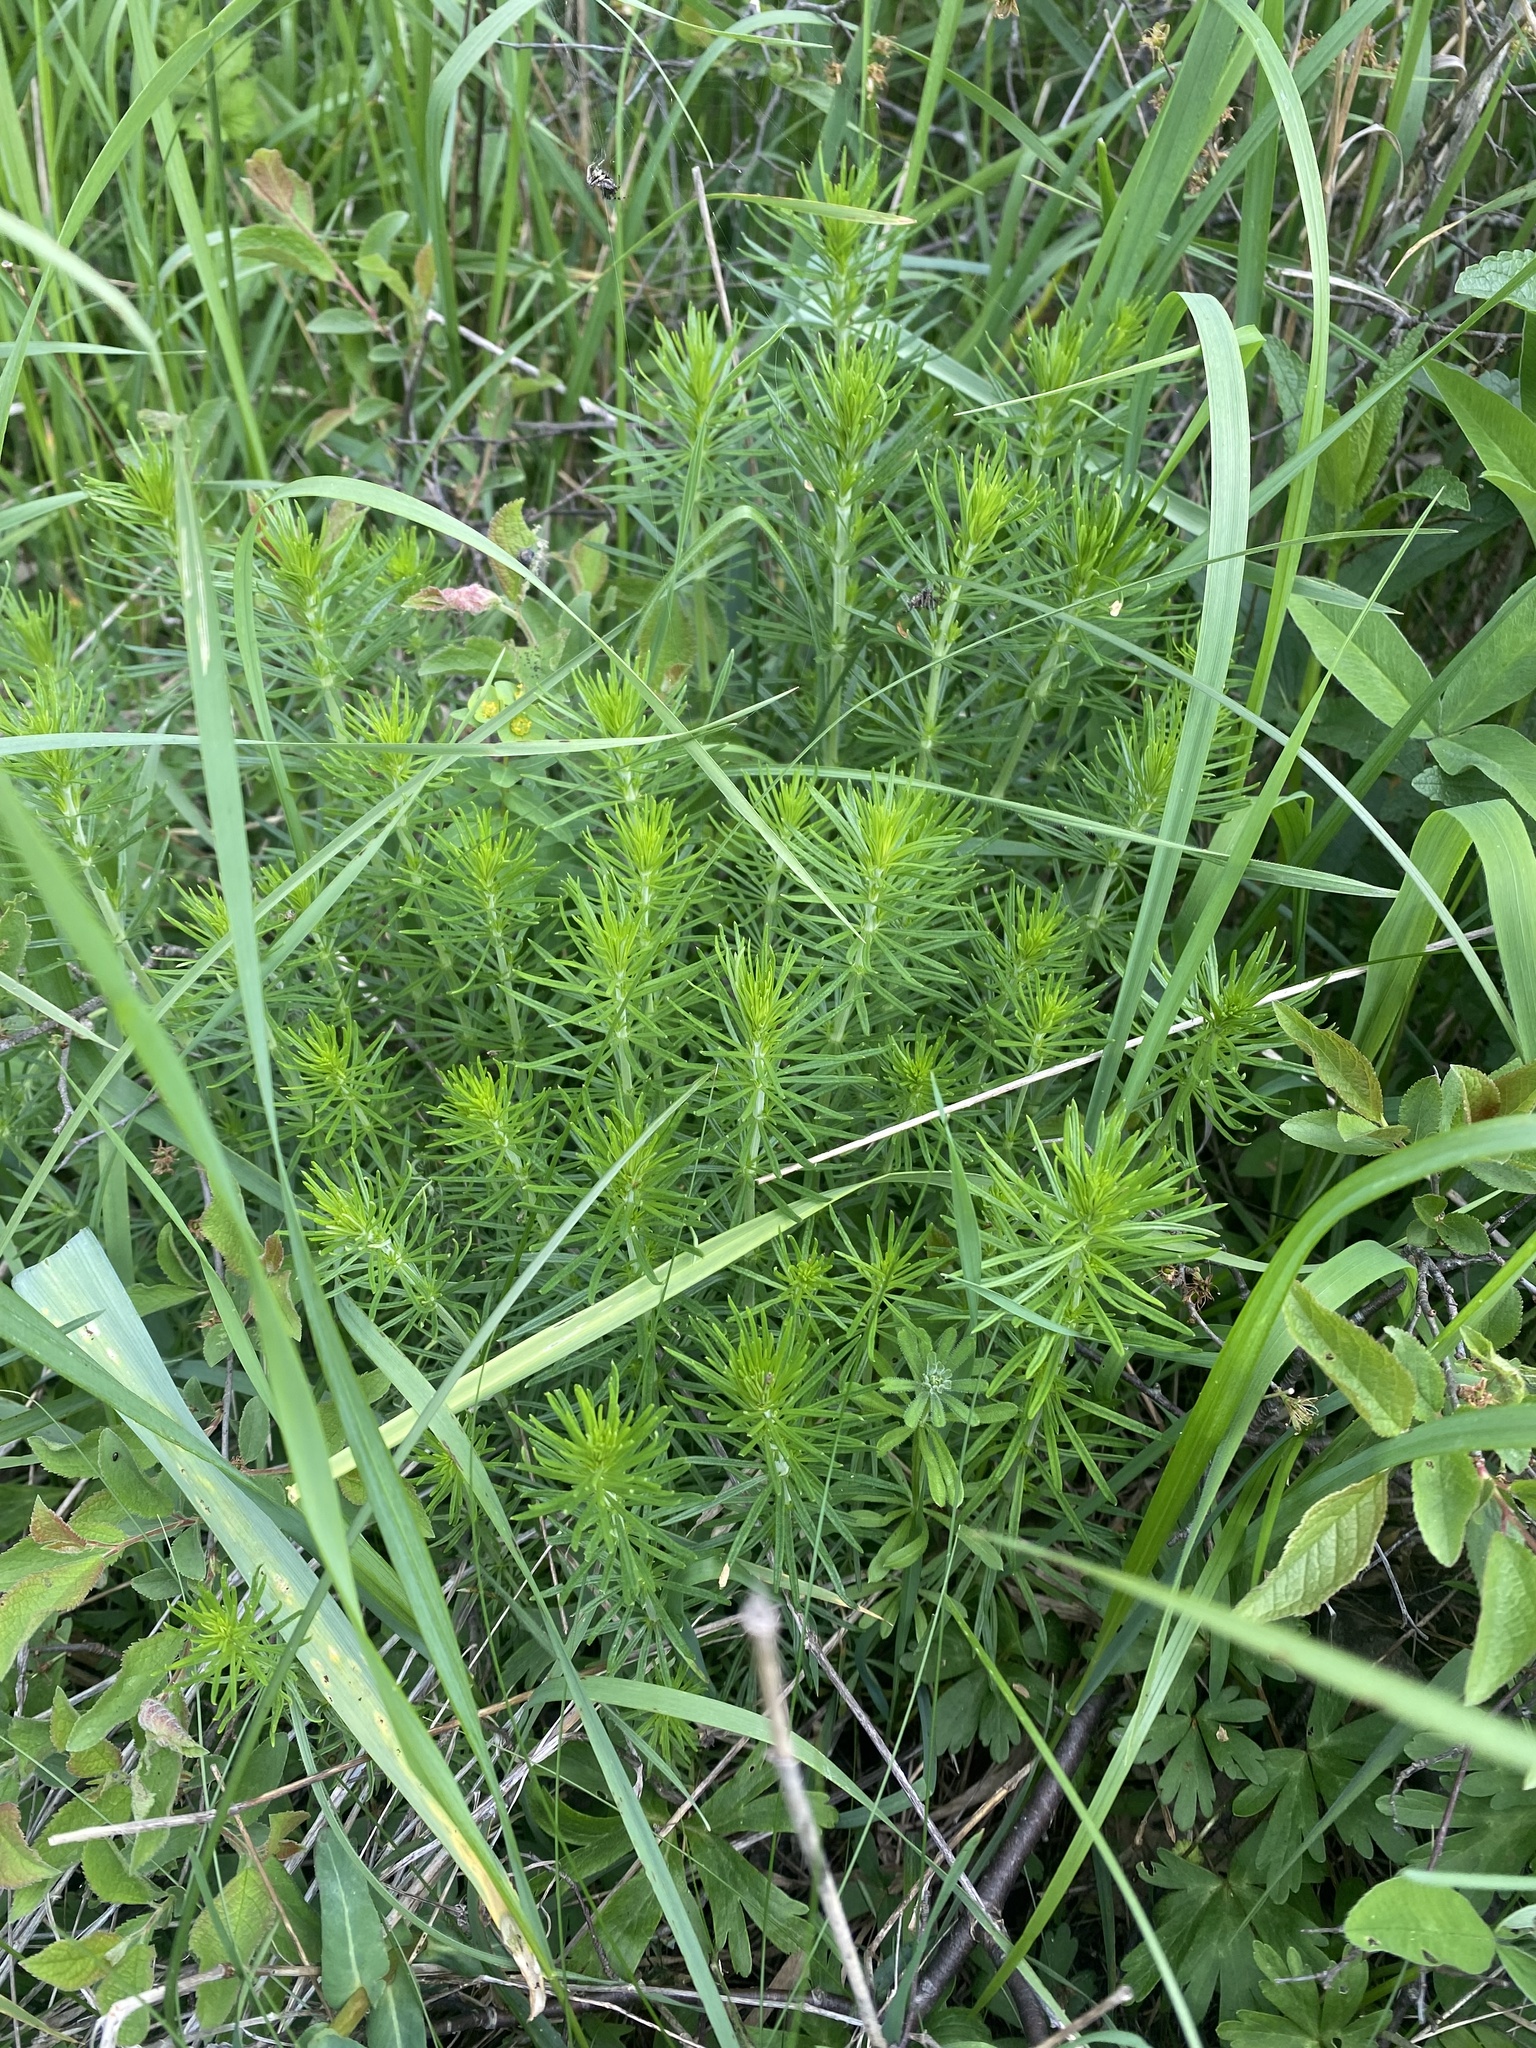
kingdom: Plantae
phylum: Tracheophyta
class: Magnoliopsida
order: Gentianales
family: Rubiaceae
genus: Galium
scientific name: Galium verum
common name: Lady's bedstraw
